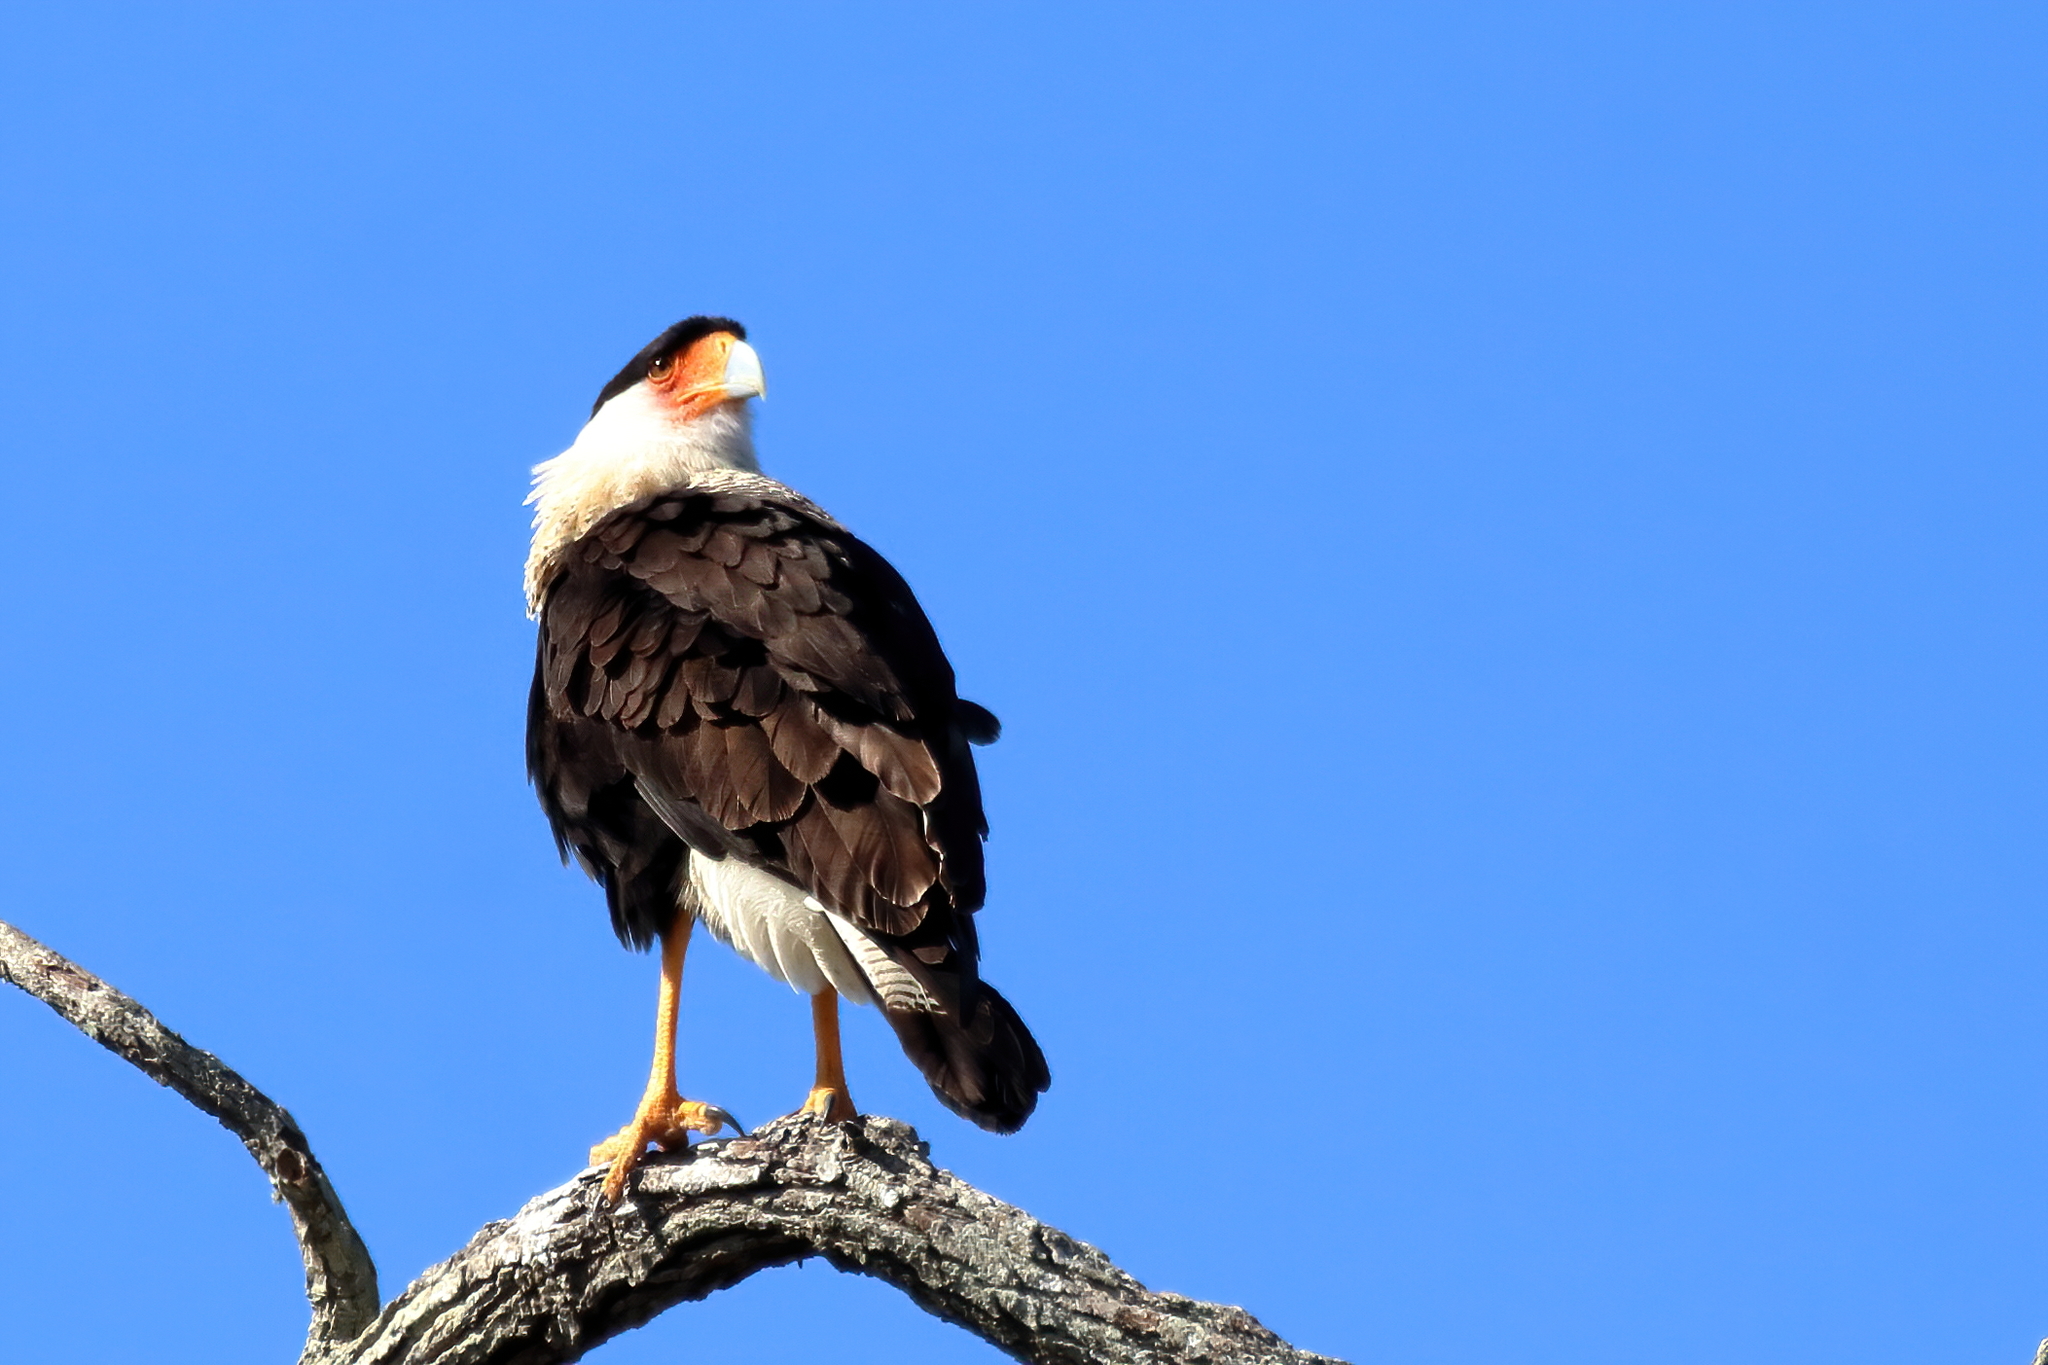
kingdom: Animalia
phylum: Chordata
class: Aves
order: Falconiformes
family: Falconidae
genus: Caracara
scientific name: Caracara plancus
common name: Southern caracara
